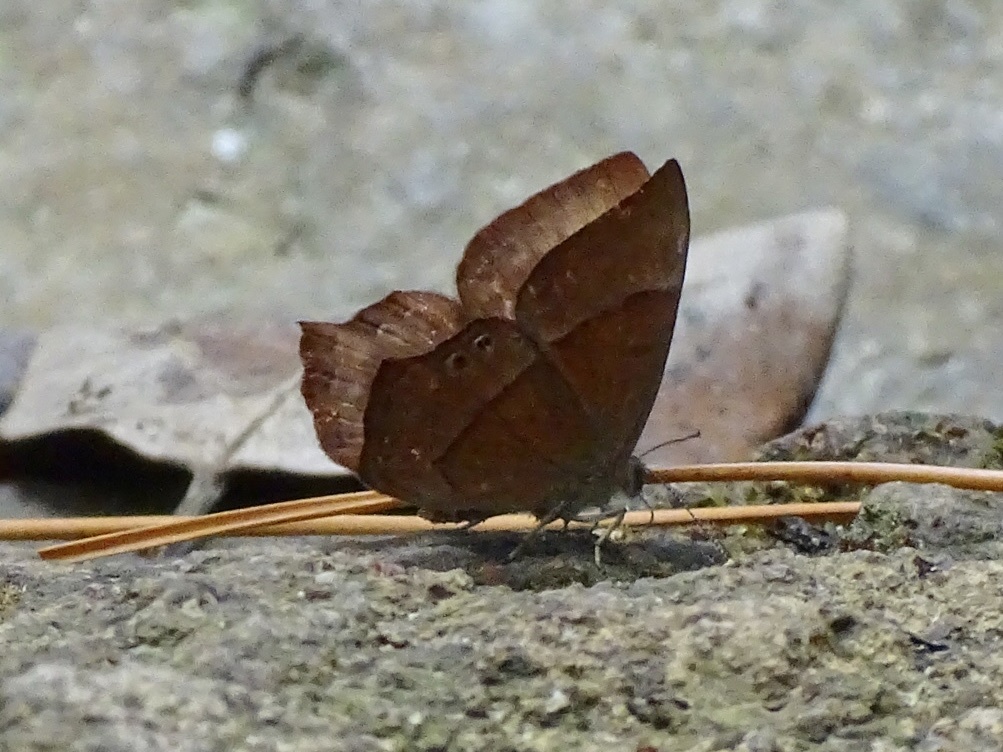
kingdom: Animalia
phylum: Arthropoda
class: Insecta
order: Lepidoptera
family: Lycaenidae
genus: Abisara
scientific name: Abisara echeria
